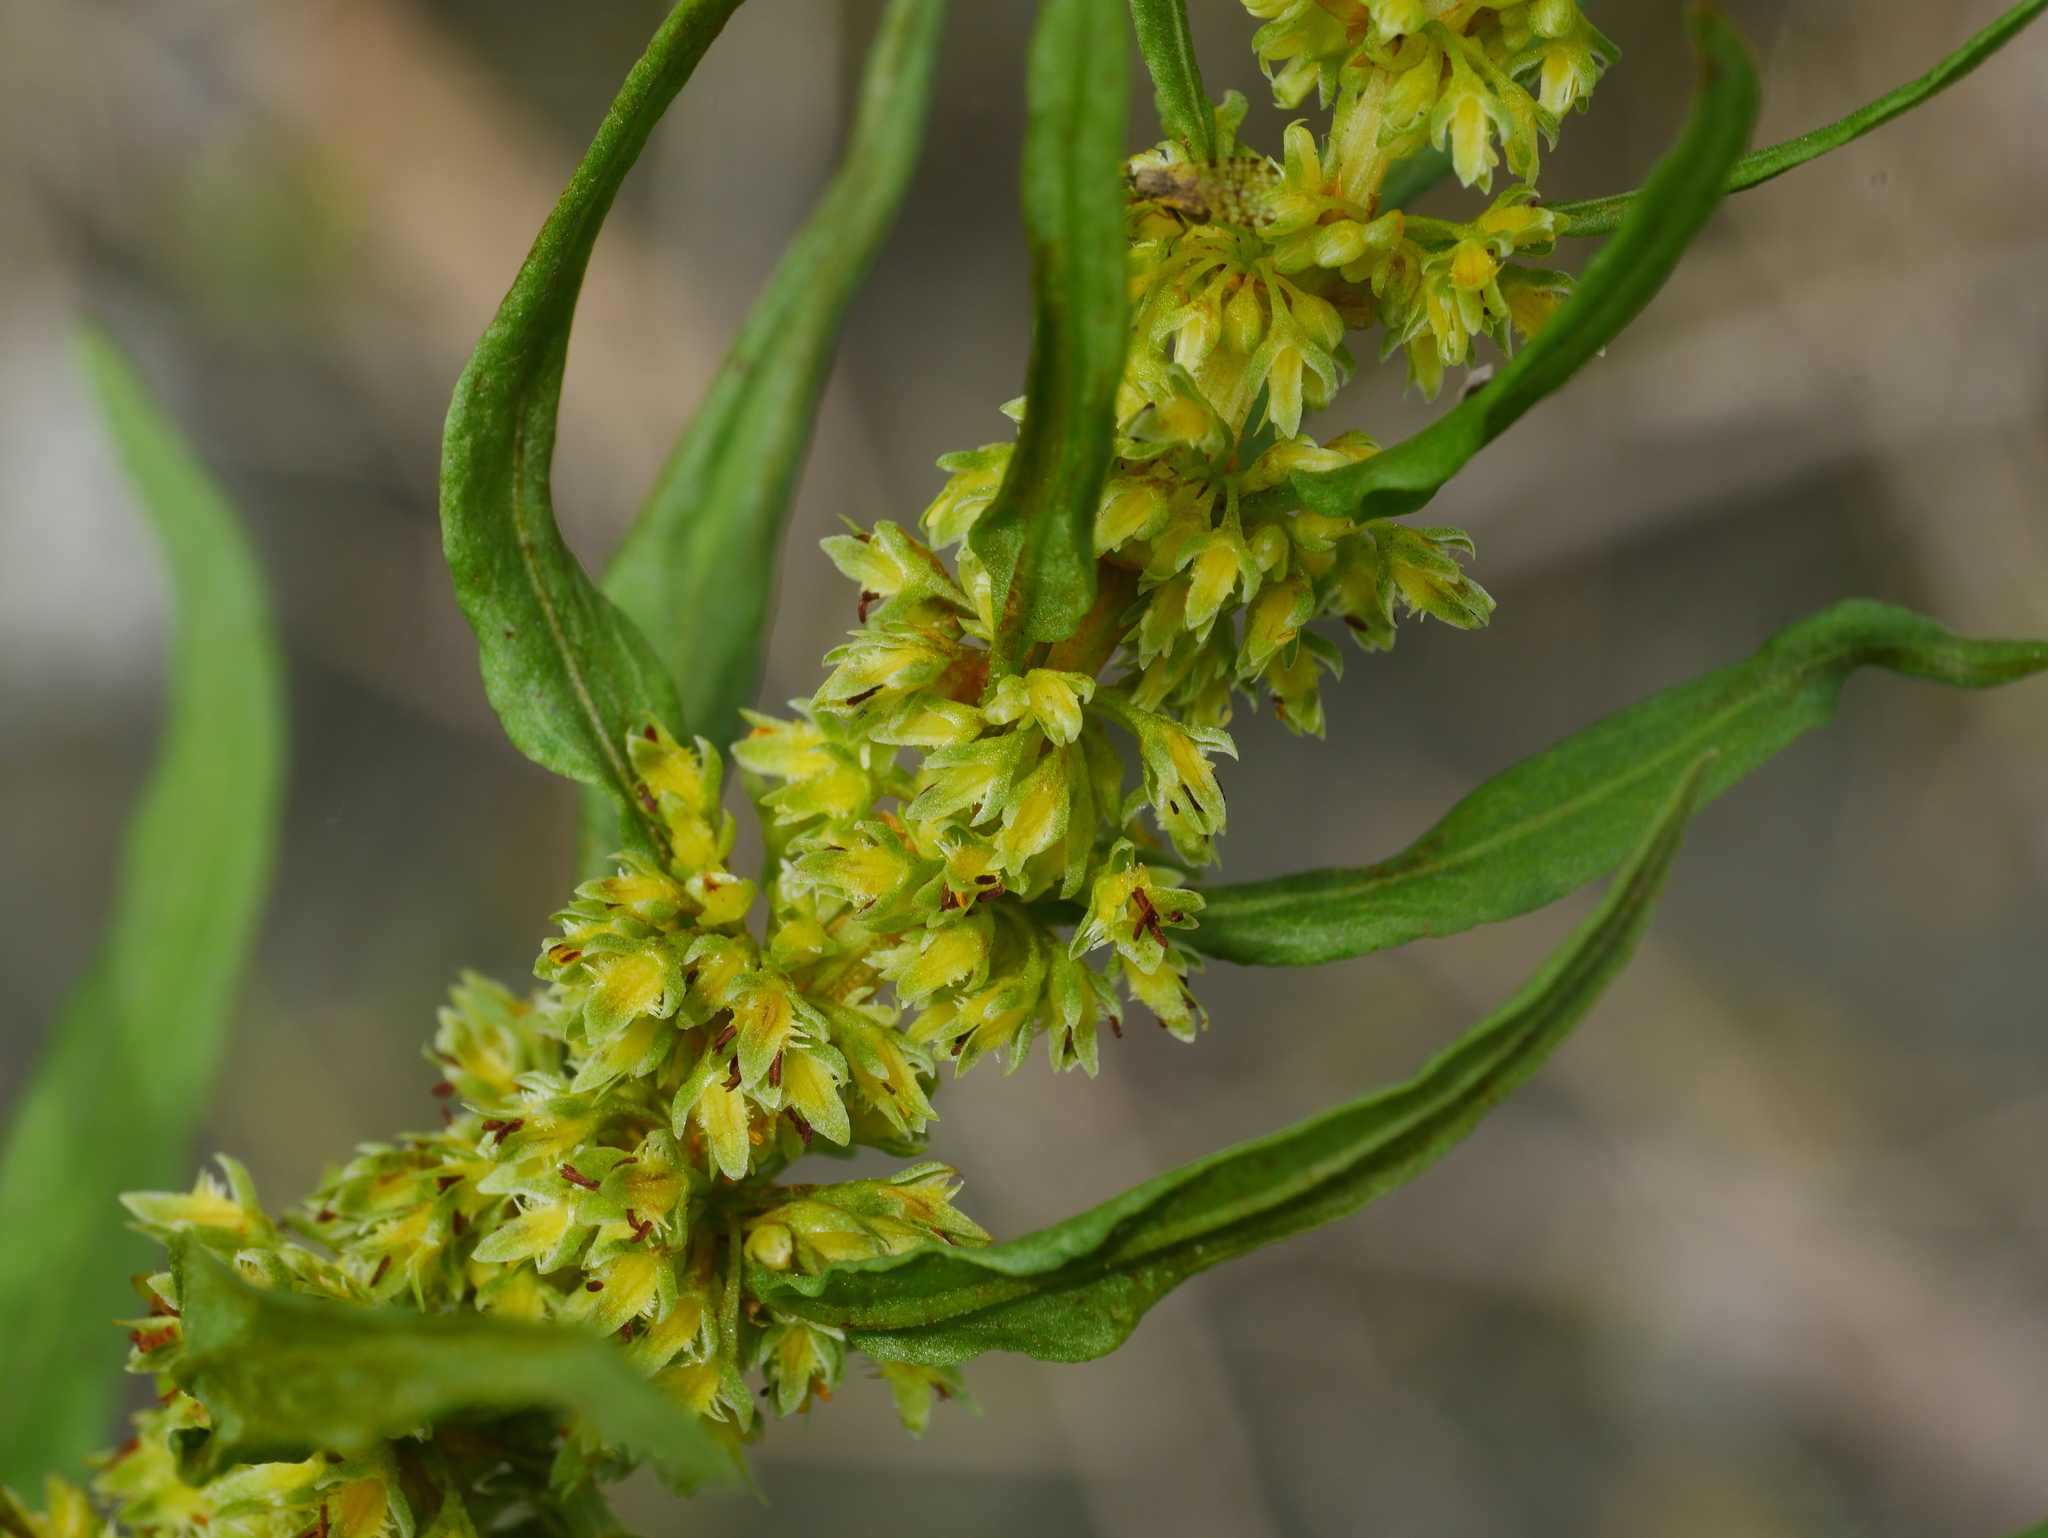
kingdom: Plantae
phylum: Tracheophyta
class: Magnoliopsida
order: Caryophyllales
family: Polygonaceae
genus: Rumex
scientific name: Rumex dentatus
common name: Toothed dock
